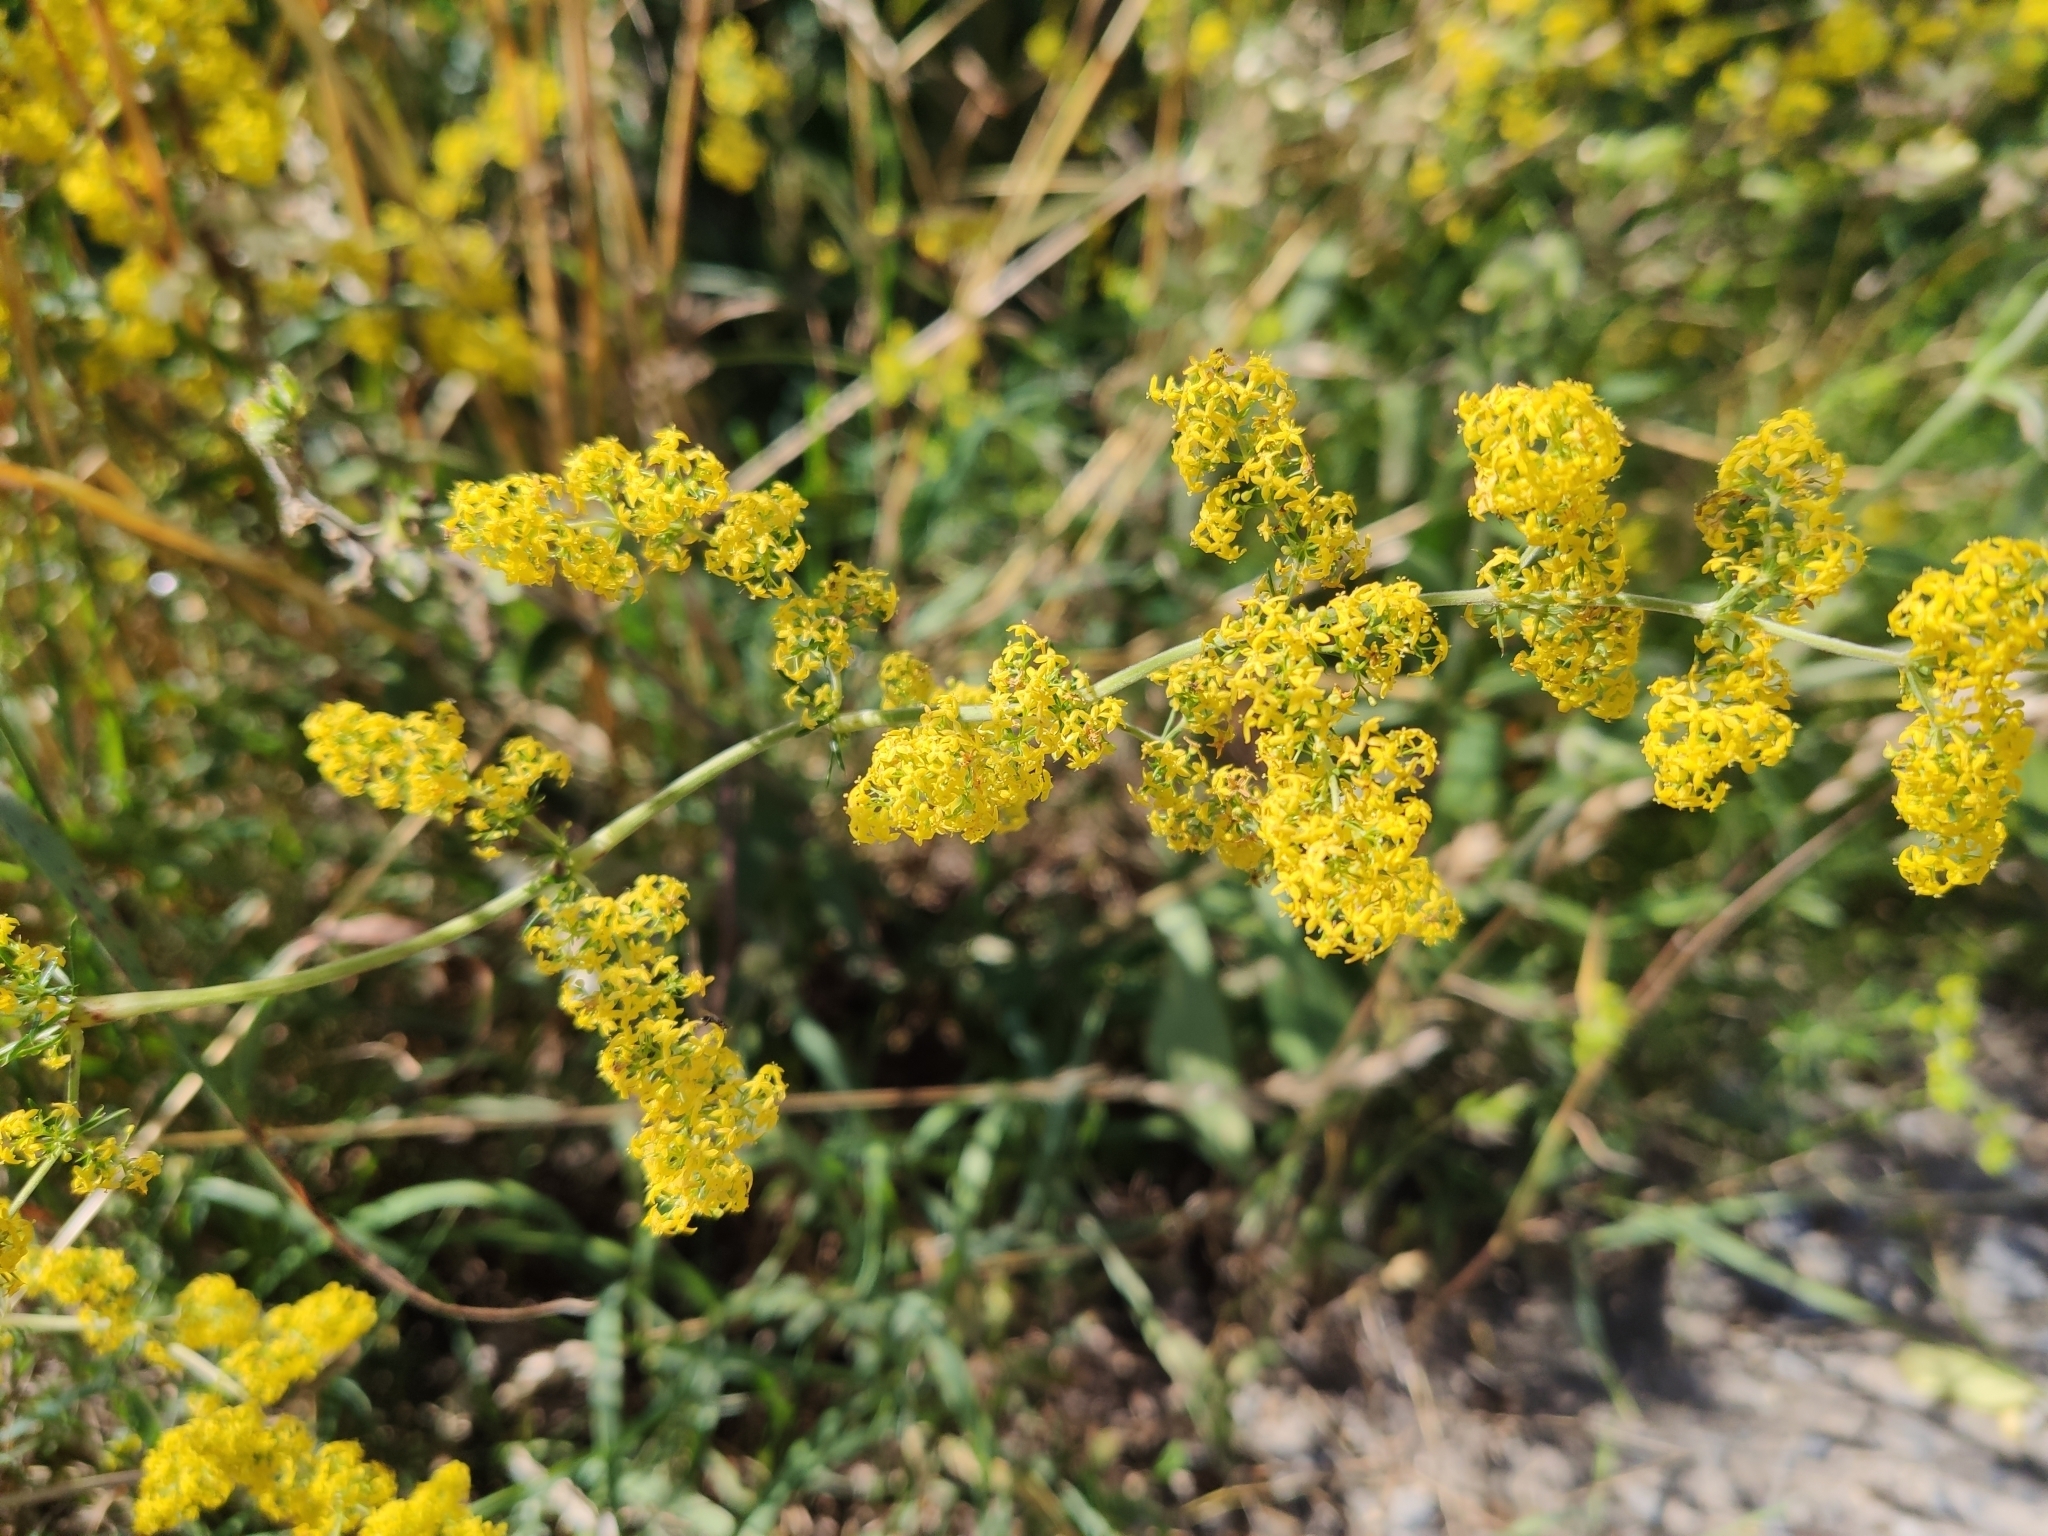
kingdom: Plantae
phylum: Tracheophyta
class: Magnoliopsida
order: Gentianales
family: Rubiaceae
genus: Galium
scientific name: Galium verum
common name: Lady's bedstraw
